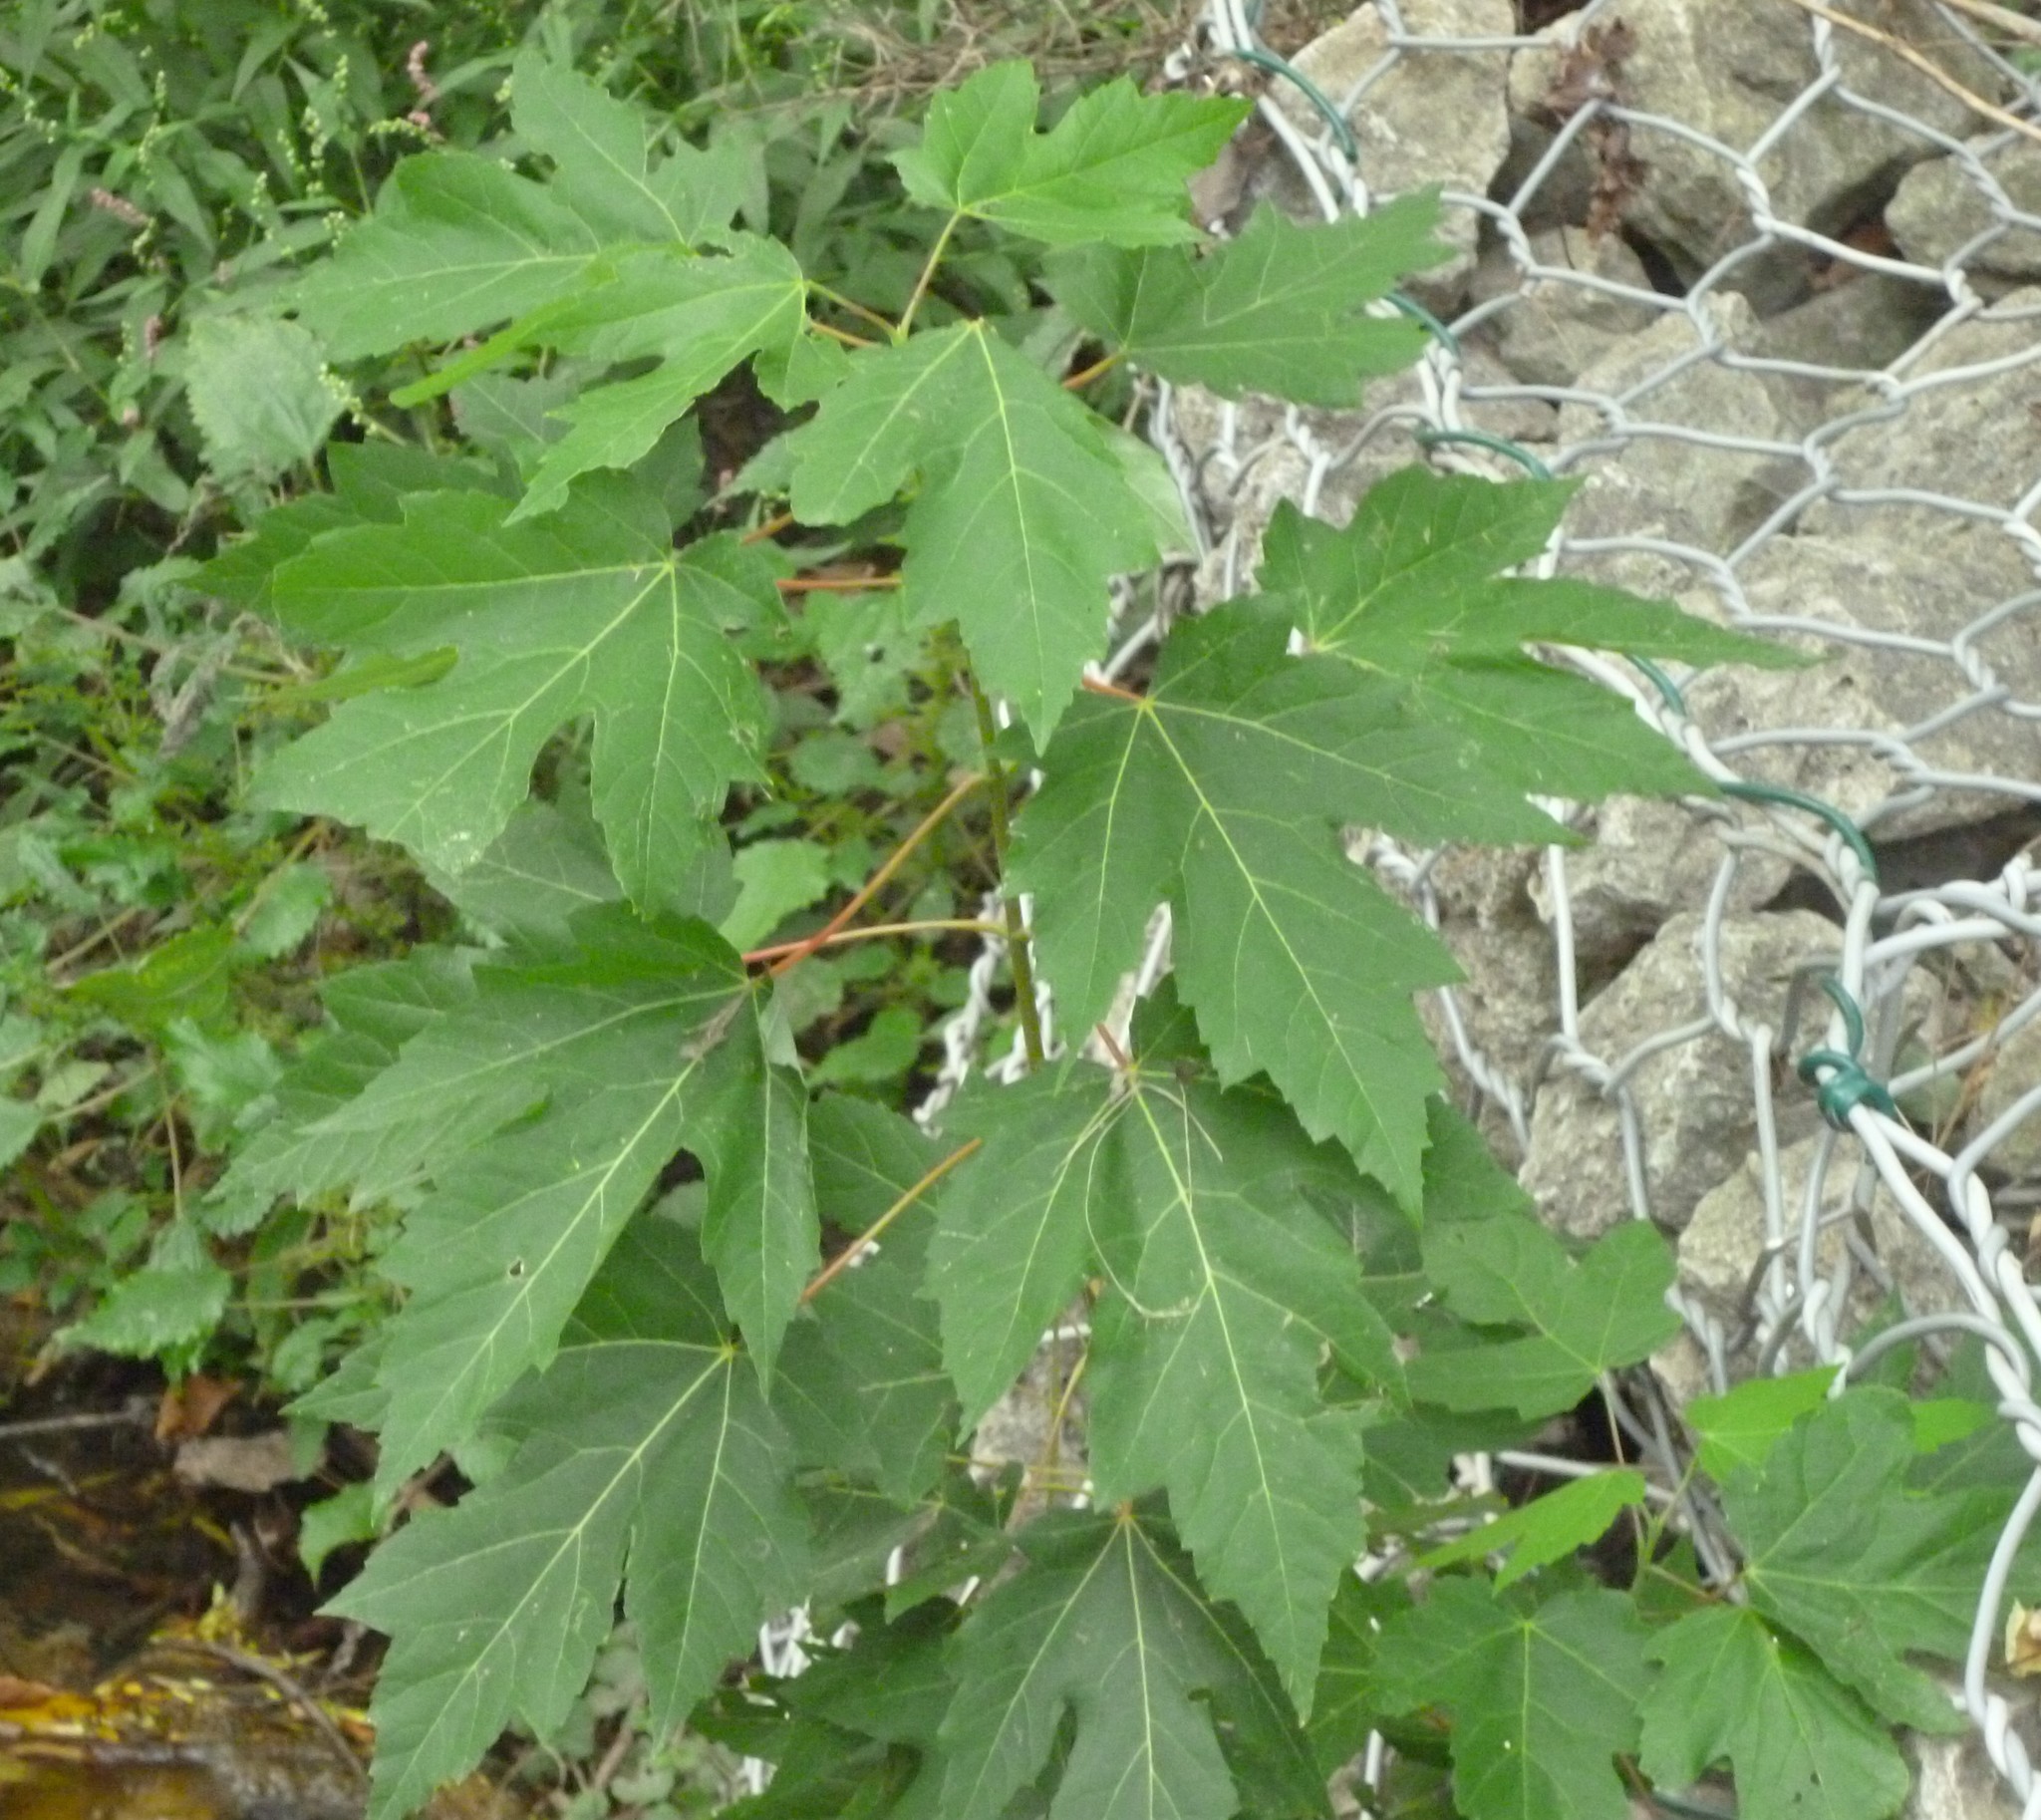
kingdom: Plantae
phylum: Tracheophyta
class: Magnoliopsida
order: Sapindales
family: Sapindaceae
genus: Acer
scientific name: Acer saccharinum
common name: Silver maple
